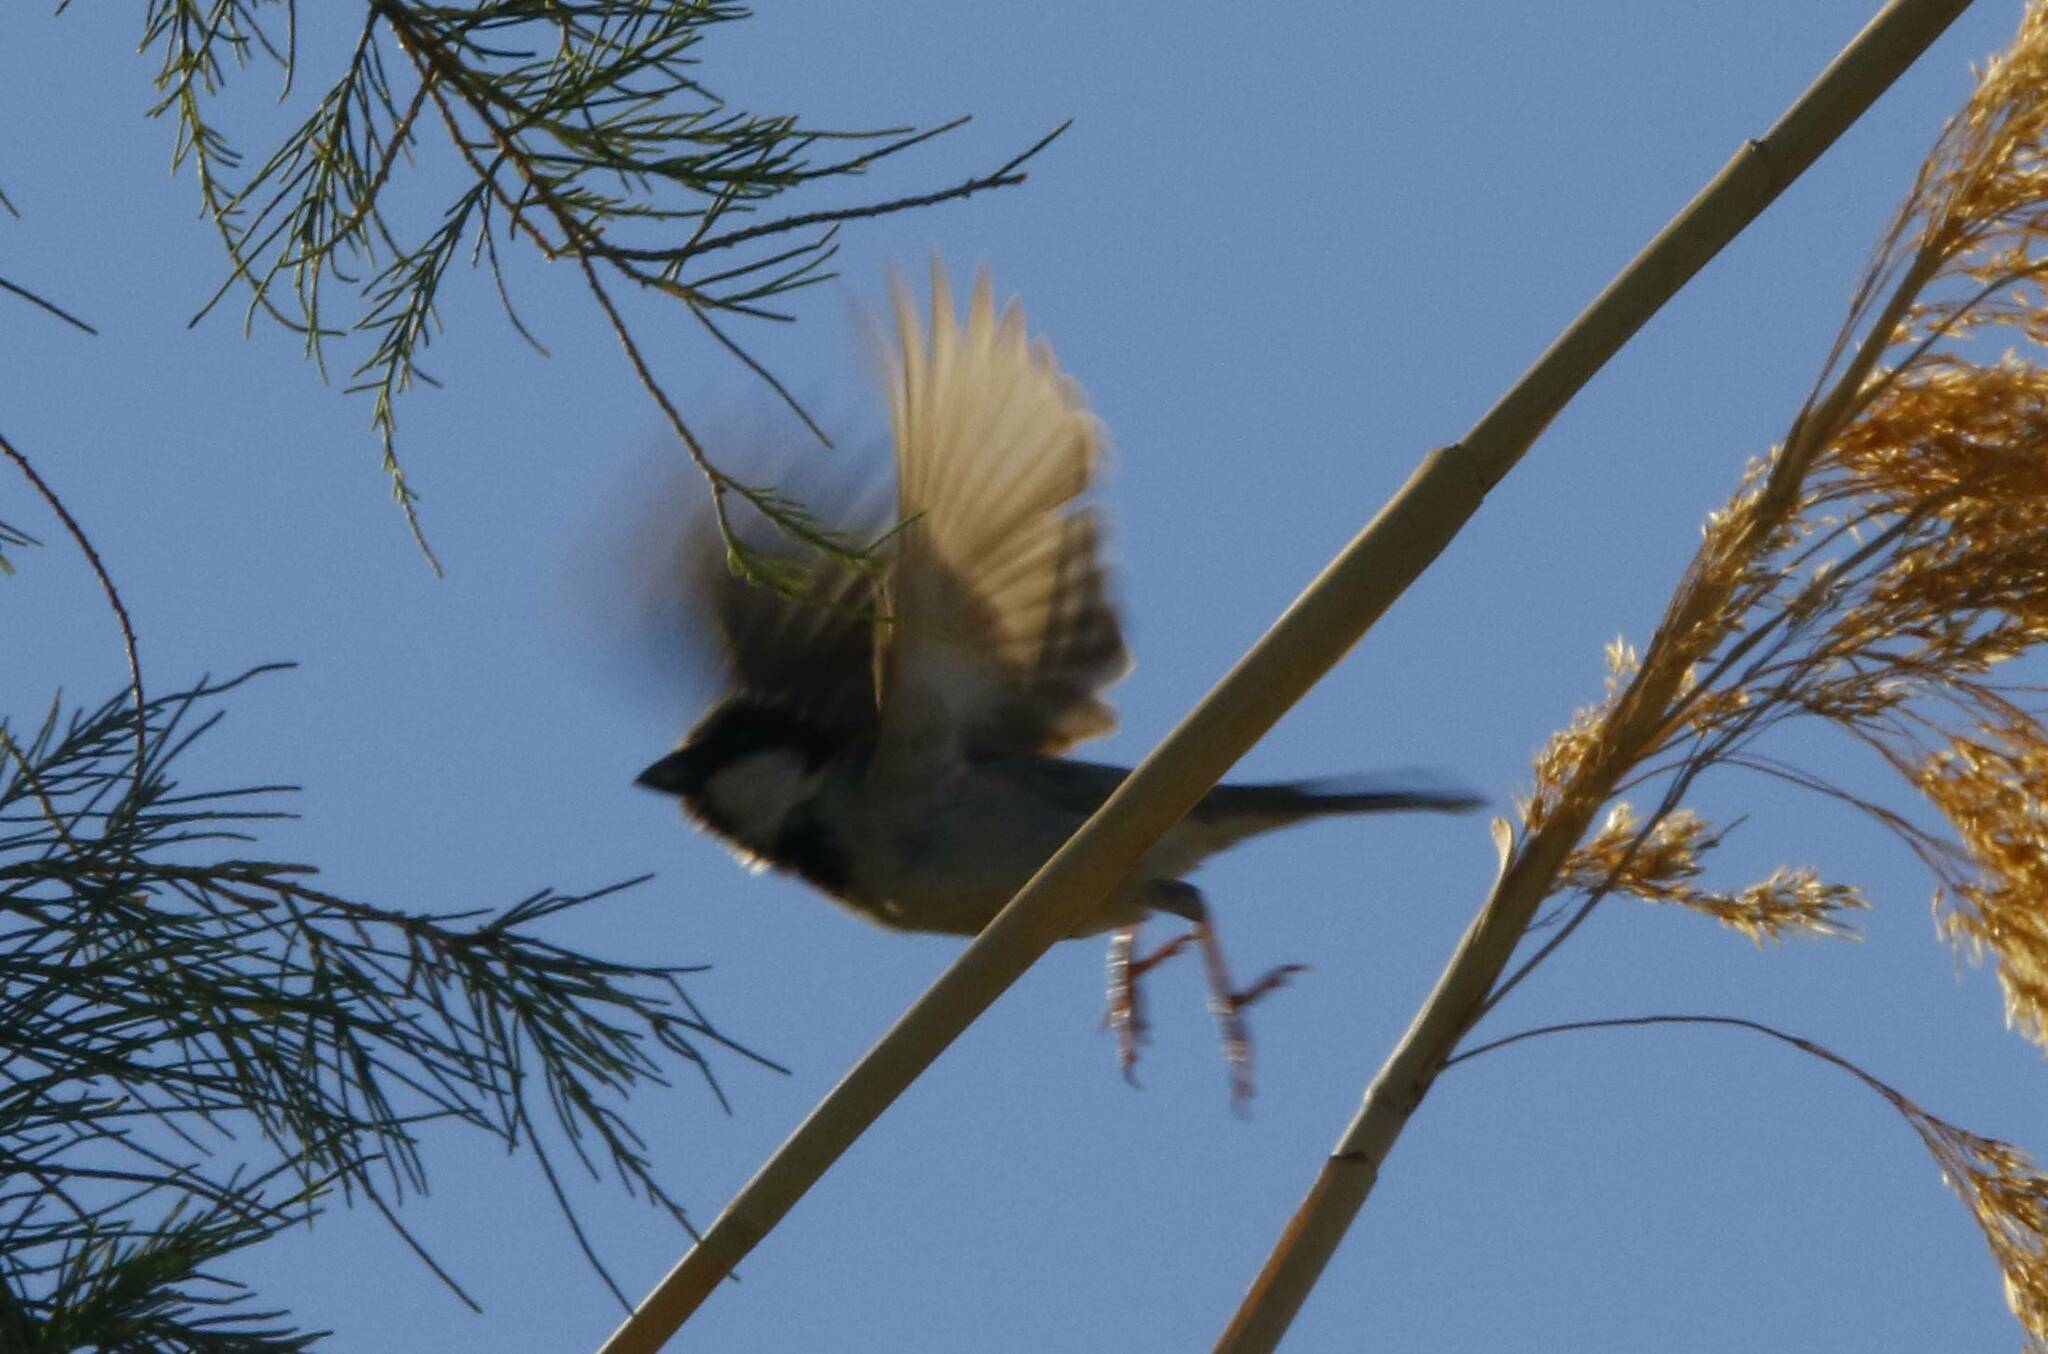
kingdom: Animalia
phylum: Chordata
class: Aves
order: Passeriformes
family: Passeridae
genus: Passer
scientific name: Passer domesticus
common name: House sparrow
